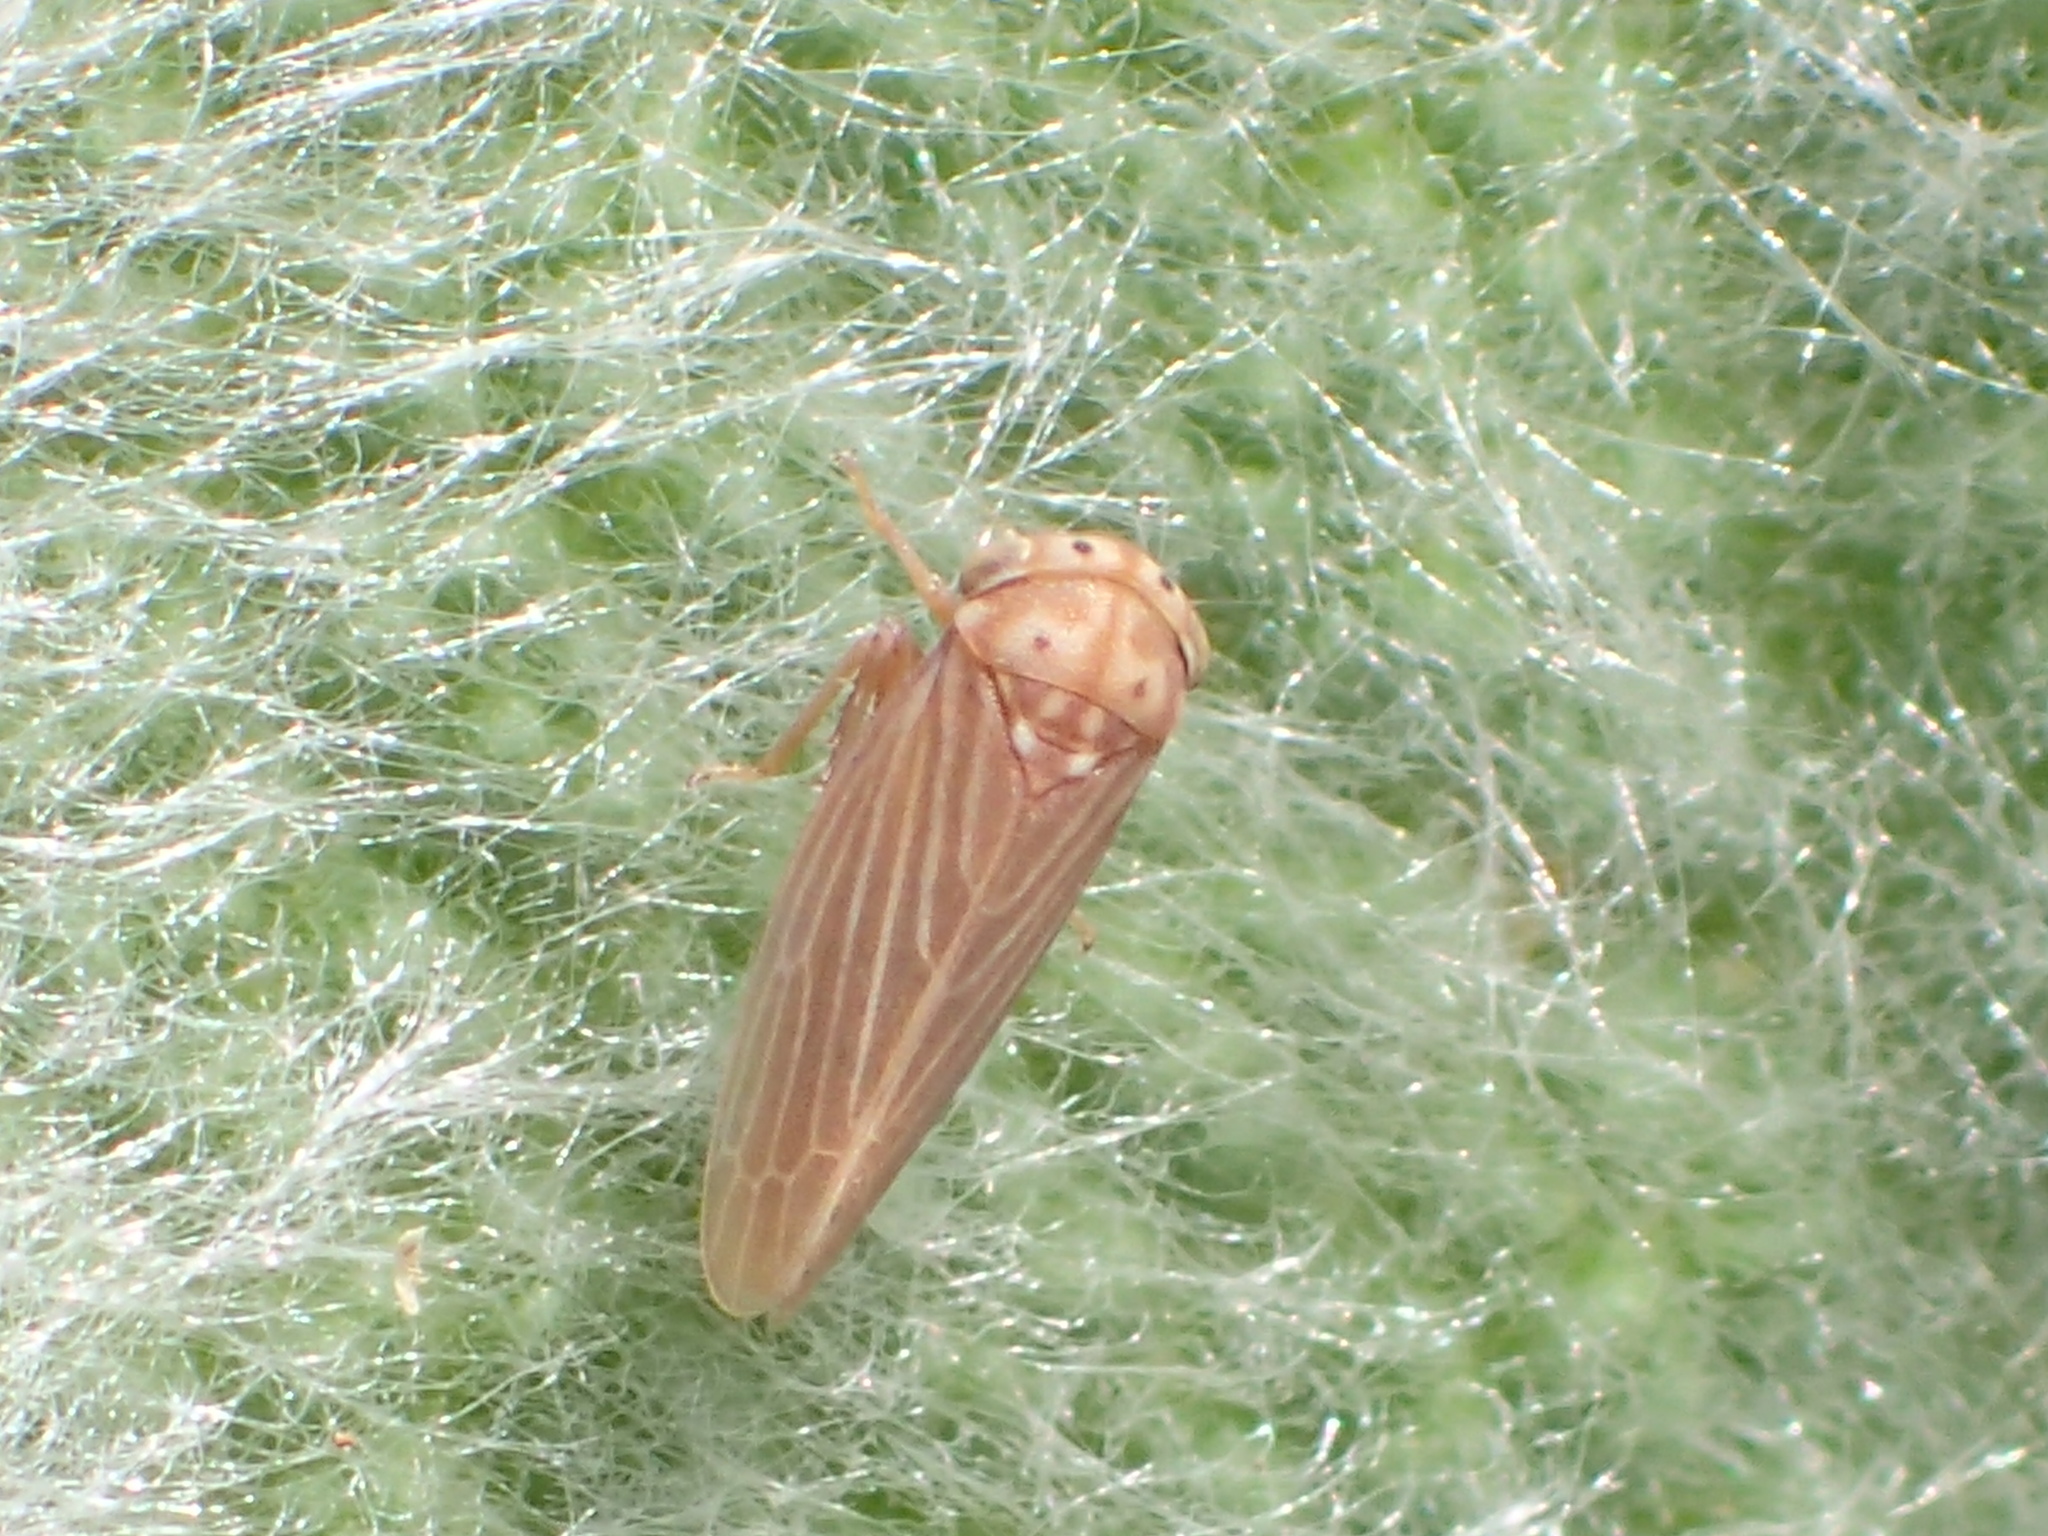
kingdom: Animalia
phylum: Arthropoda
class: Insecta
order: Hemiptera
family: Cicadellidae
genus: Agallia
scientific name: Agallia constricta
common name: The constricted leafhopper
